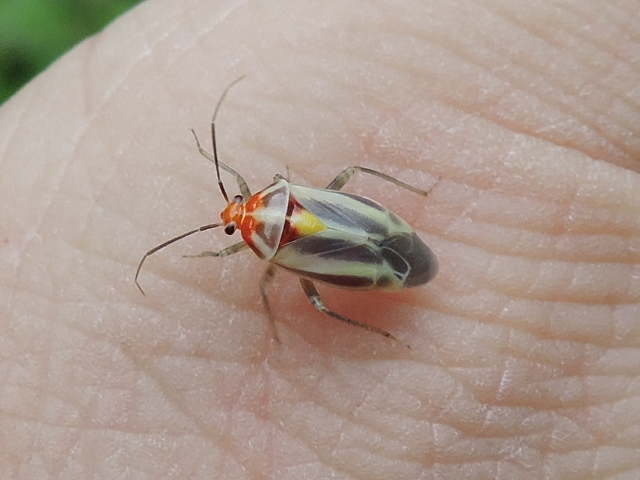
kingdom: Animalia
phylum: Arthropoda
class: Insecta
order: Hemiptera
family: Miridae
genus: Poecilocapsus
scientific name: Poecilocapsus lineatus
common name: Four-lined plant bug
